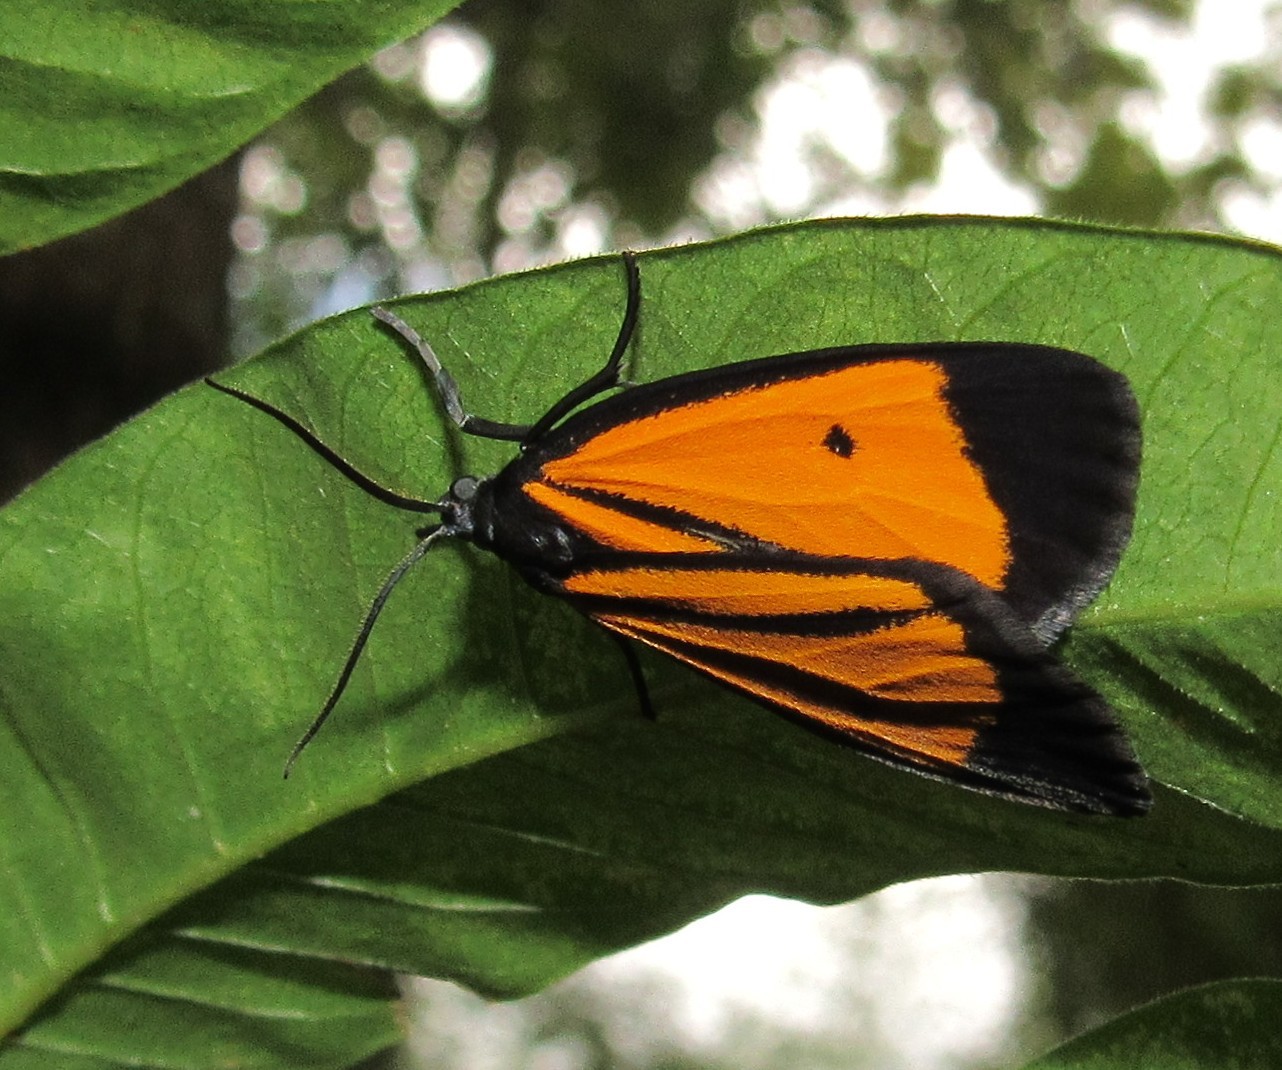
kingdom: Animalia
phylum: Arthropoda
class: Insecta
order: Lepidoptera
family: Erebidae
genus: Paratype
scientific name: Paratype univitta
